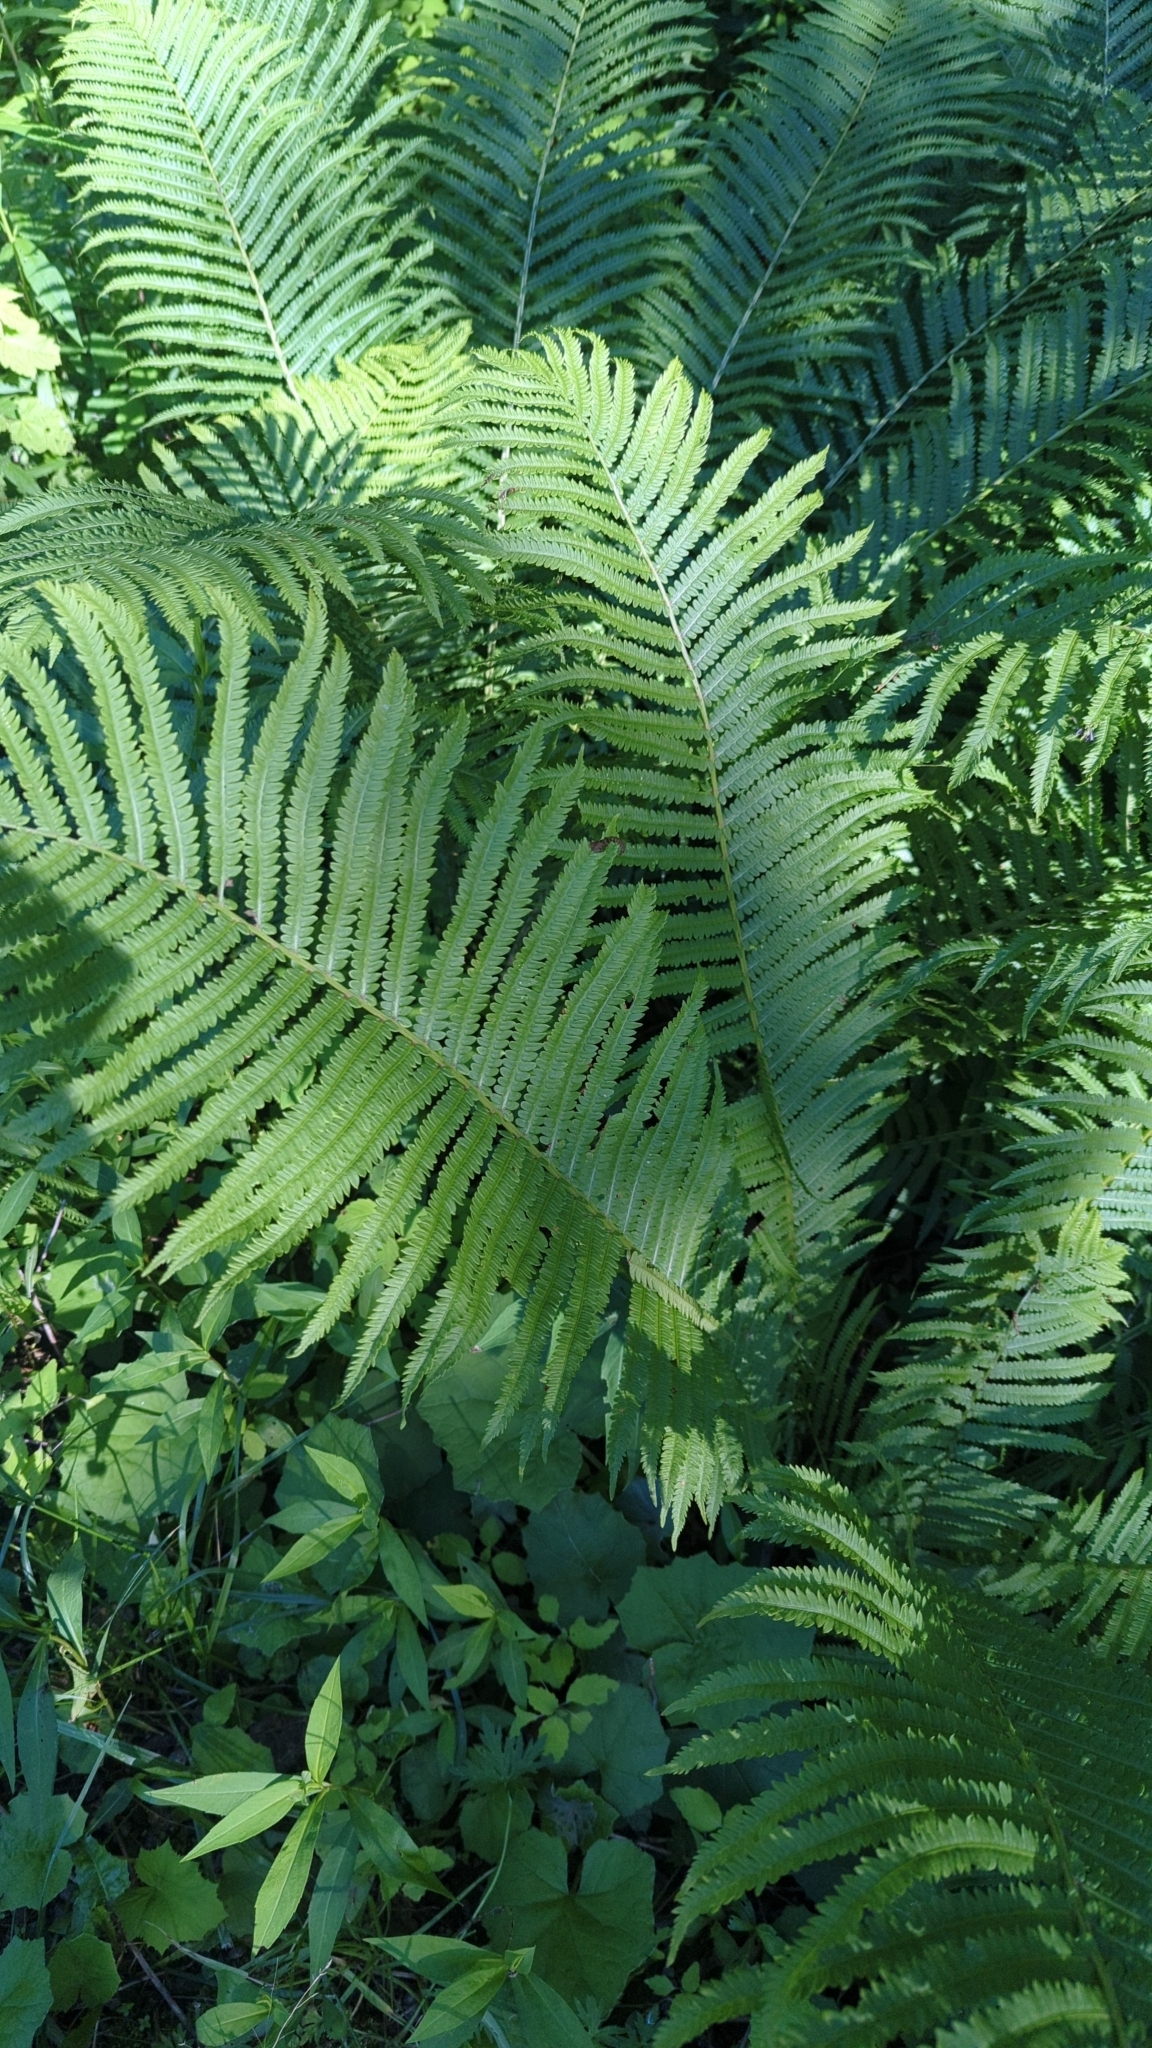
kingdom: Plantae
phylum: Tracheophyta
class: Polypodiopsida
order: Polypodiales
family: Onocleaceae
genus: Matteuccia
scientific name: Matteuccia struthiopteris
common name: Ostrich fern
